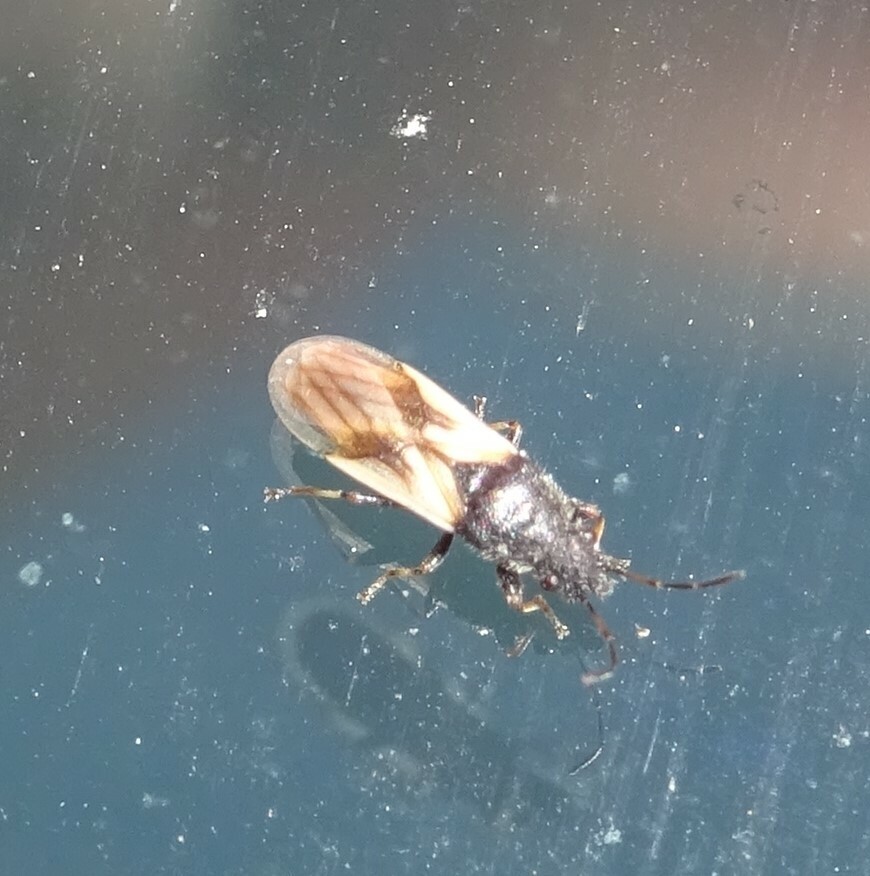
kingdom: Animalia
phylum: Arthropoda
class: Insecta
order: Hemiptera
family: Oxycarenidae
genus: Metopoplax
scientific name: Metopoplax ditomoides
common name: Seed bug
